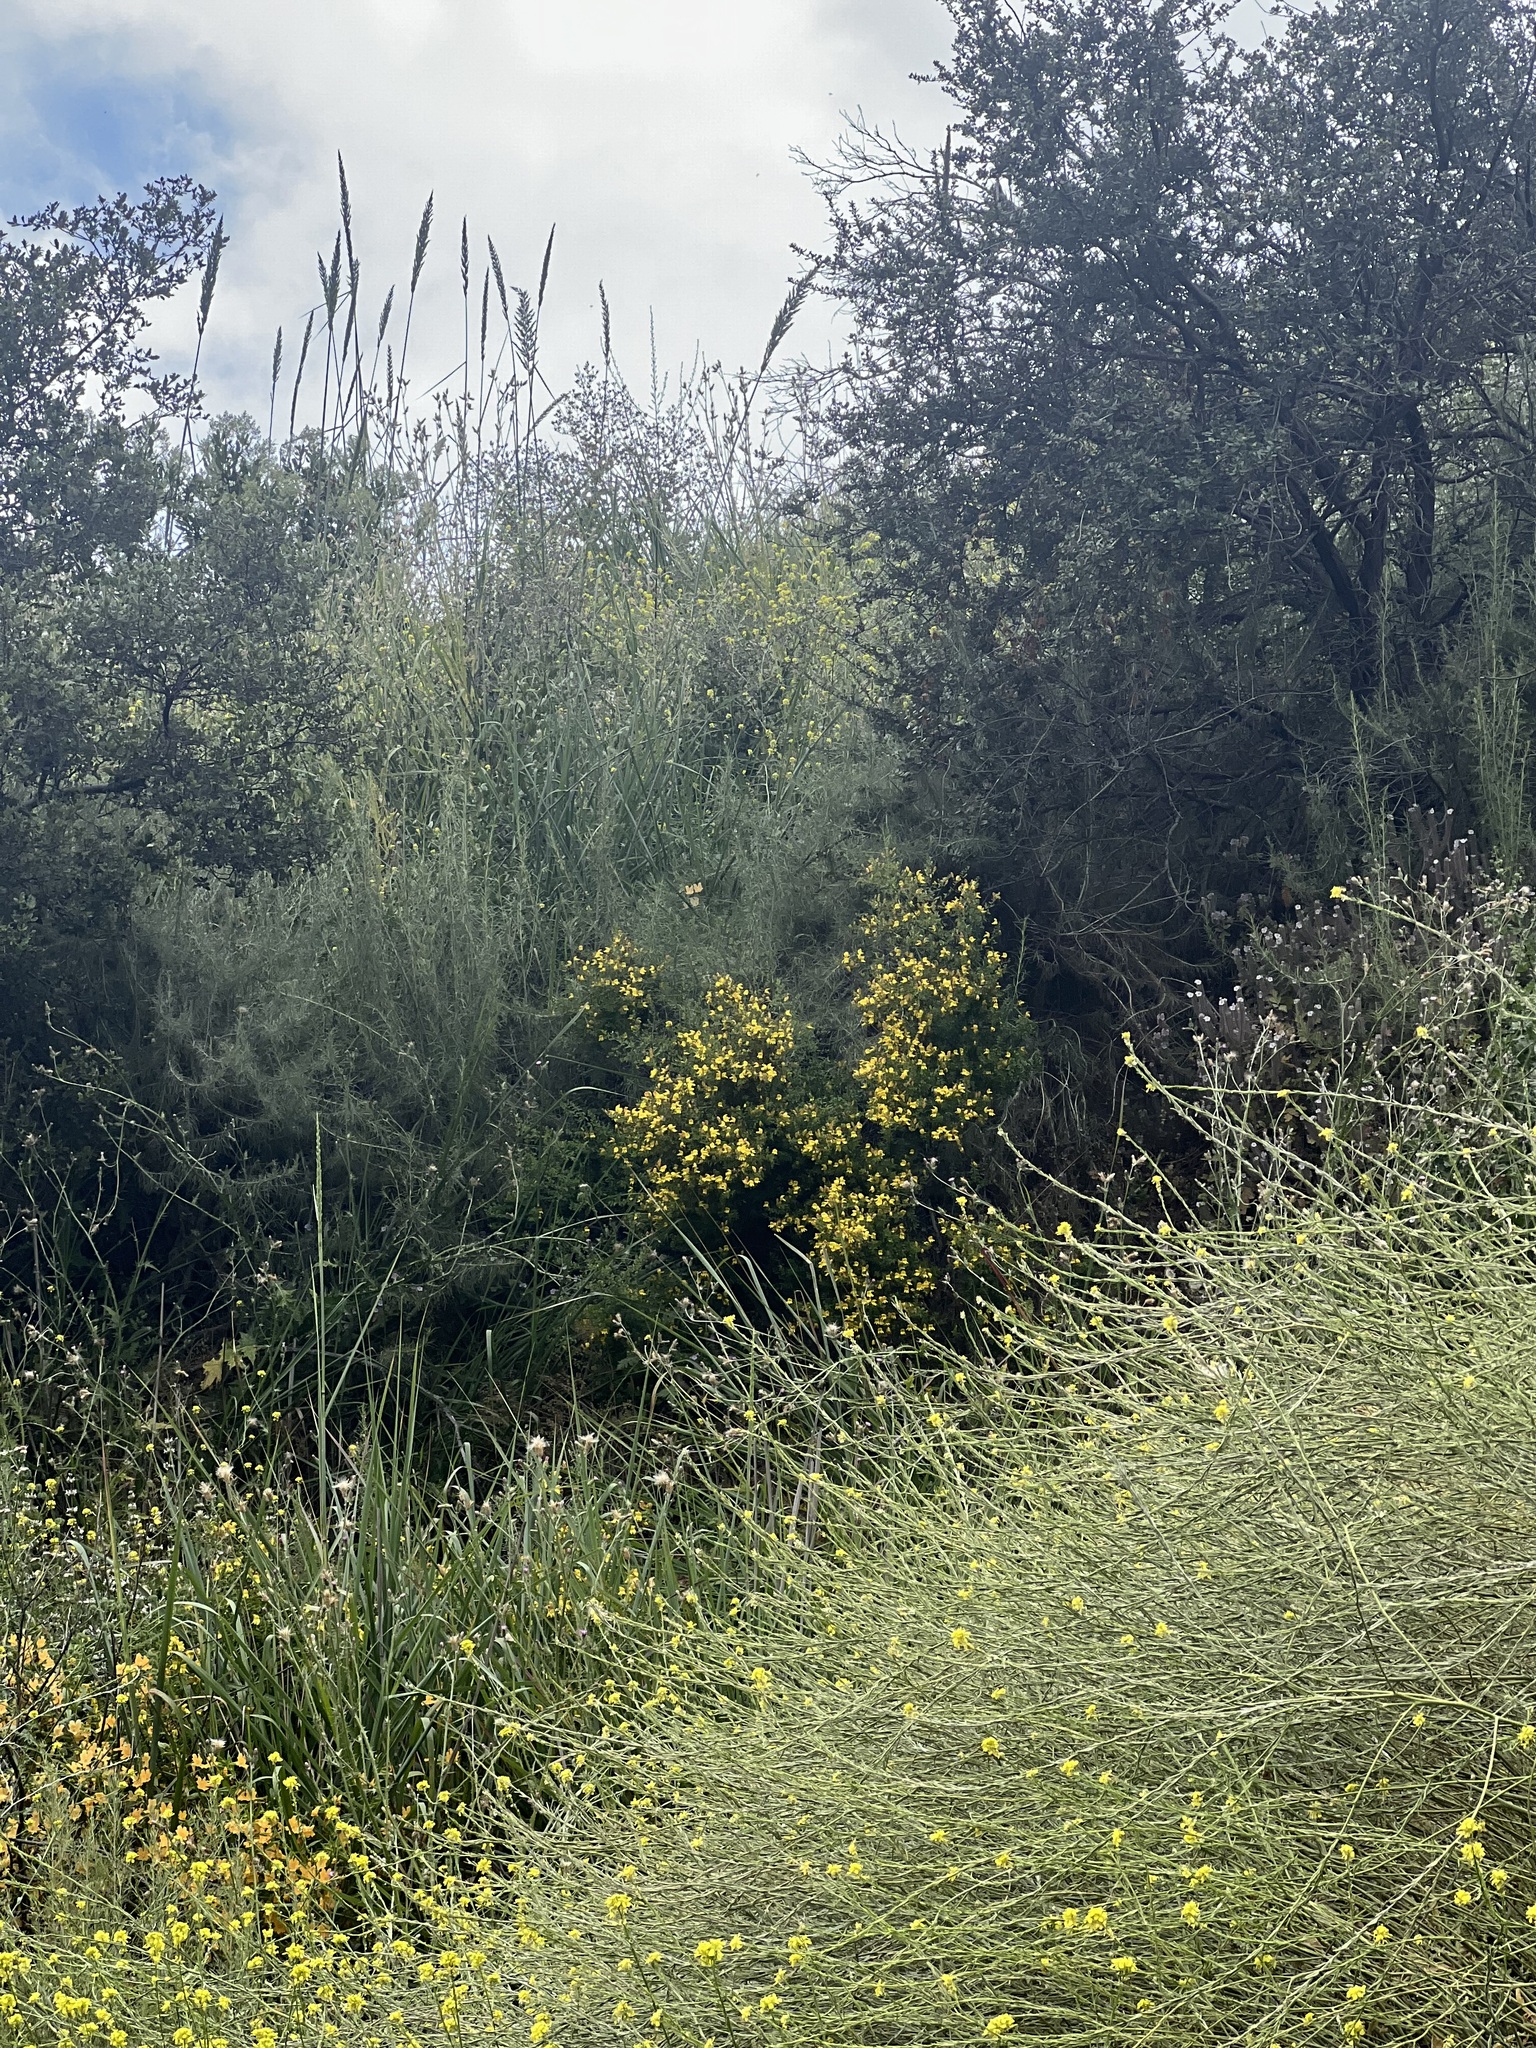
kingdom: Plantae
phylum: Tracheophyta
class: Magnoliopsida
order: Lamiales
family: Plantaginaceae
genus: Keckiella
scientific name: Keckiella antirrhinoides
